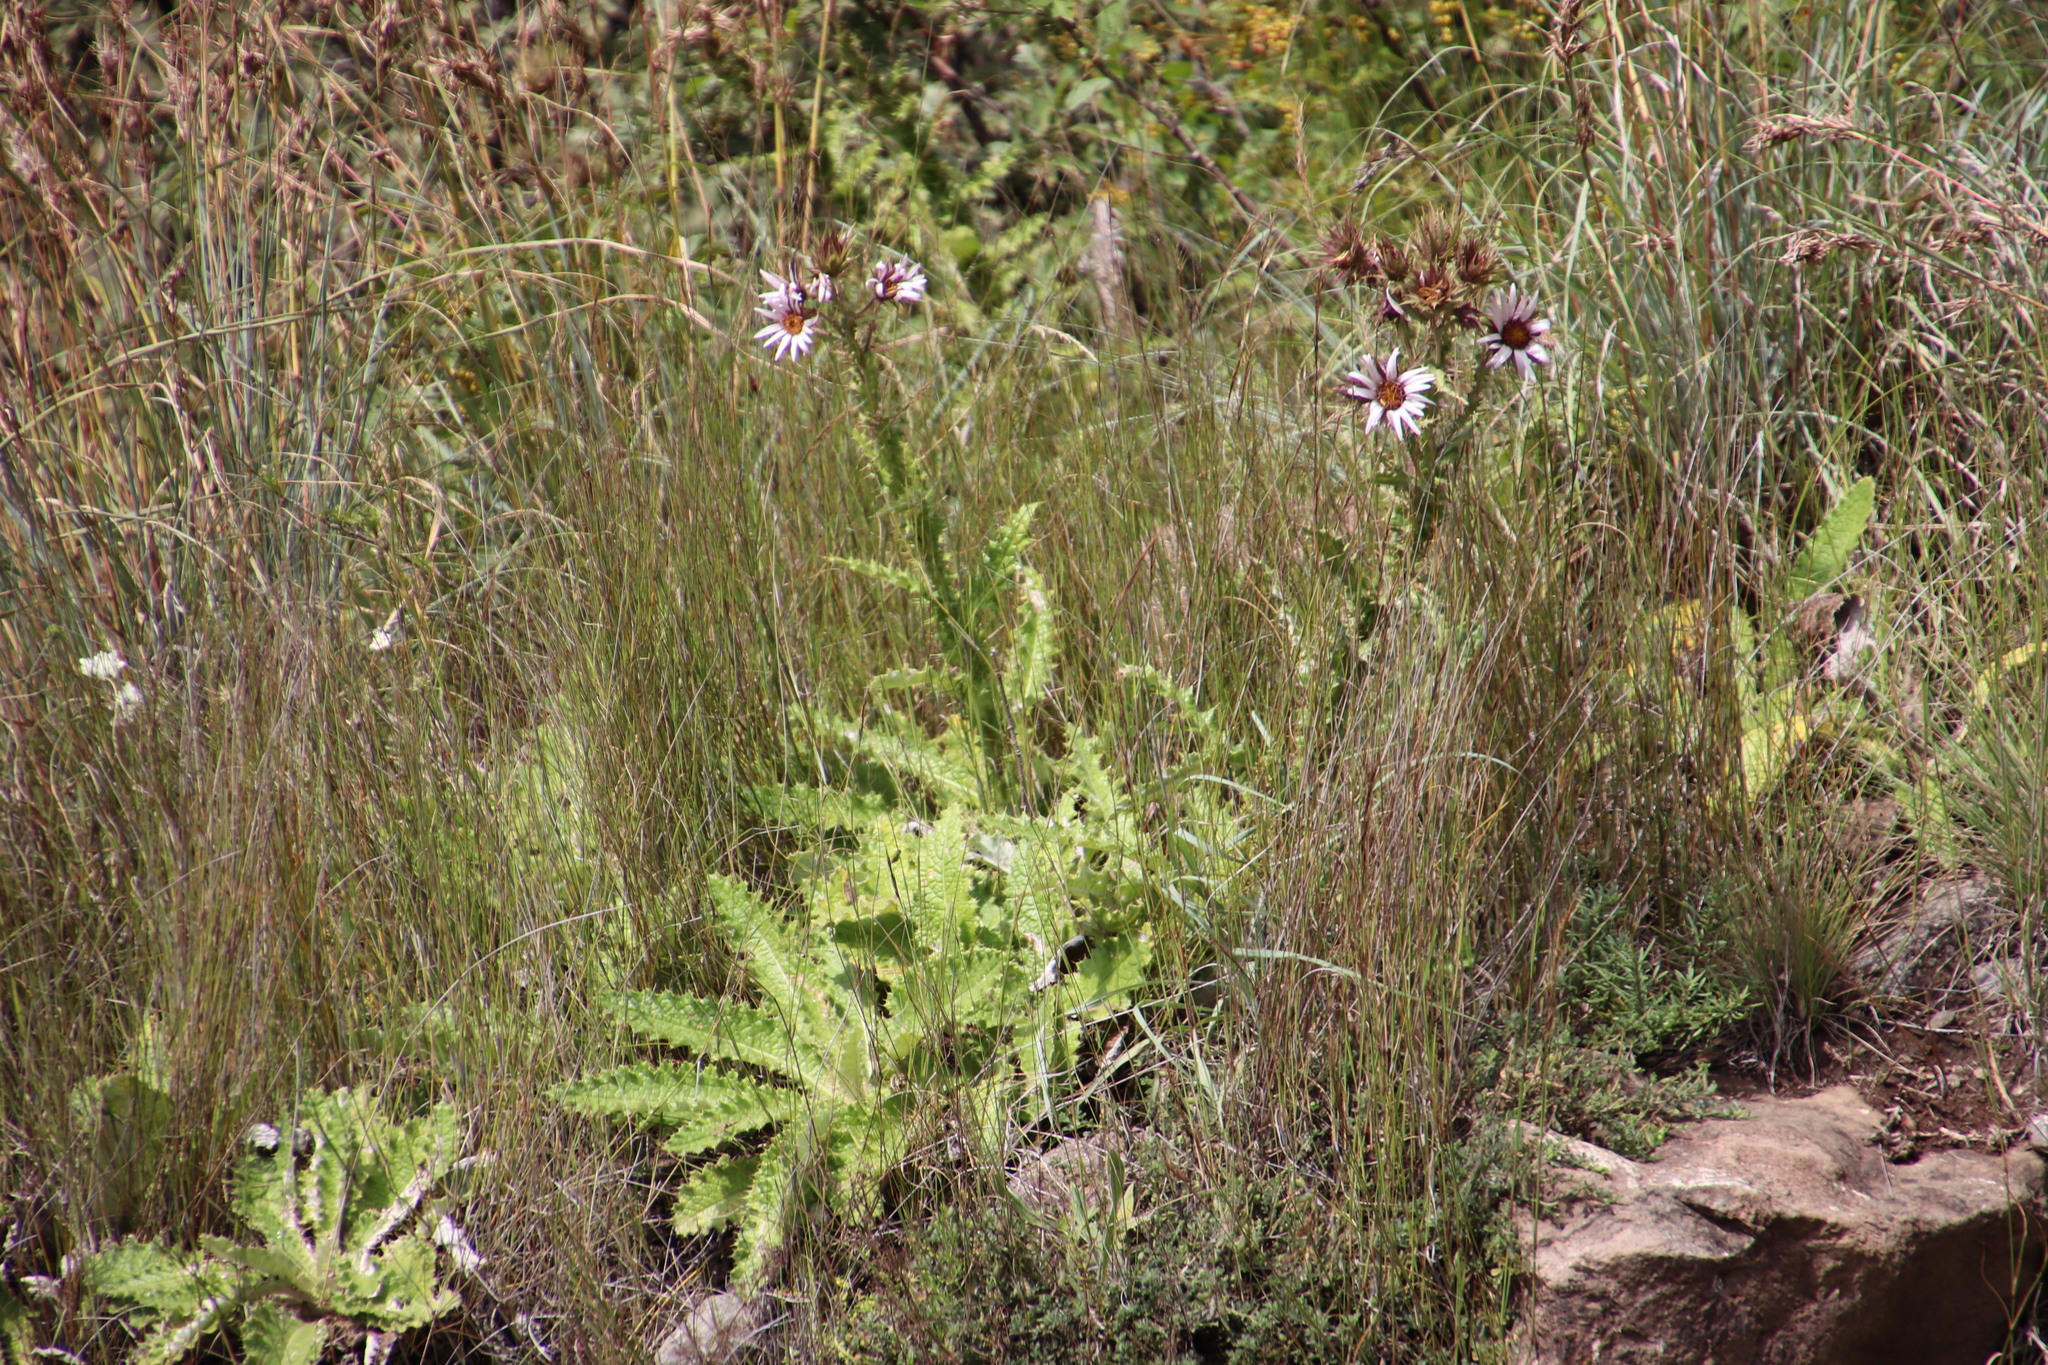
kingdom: Plantae
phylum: Tracheophyta
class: Magnoliopsida
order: Asterales
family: Asteraceae
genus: Berkheya
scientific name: Berkheya purpurea
